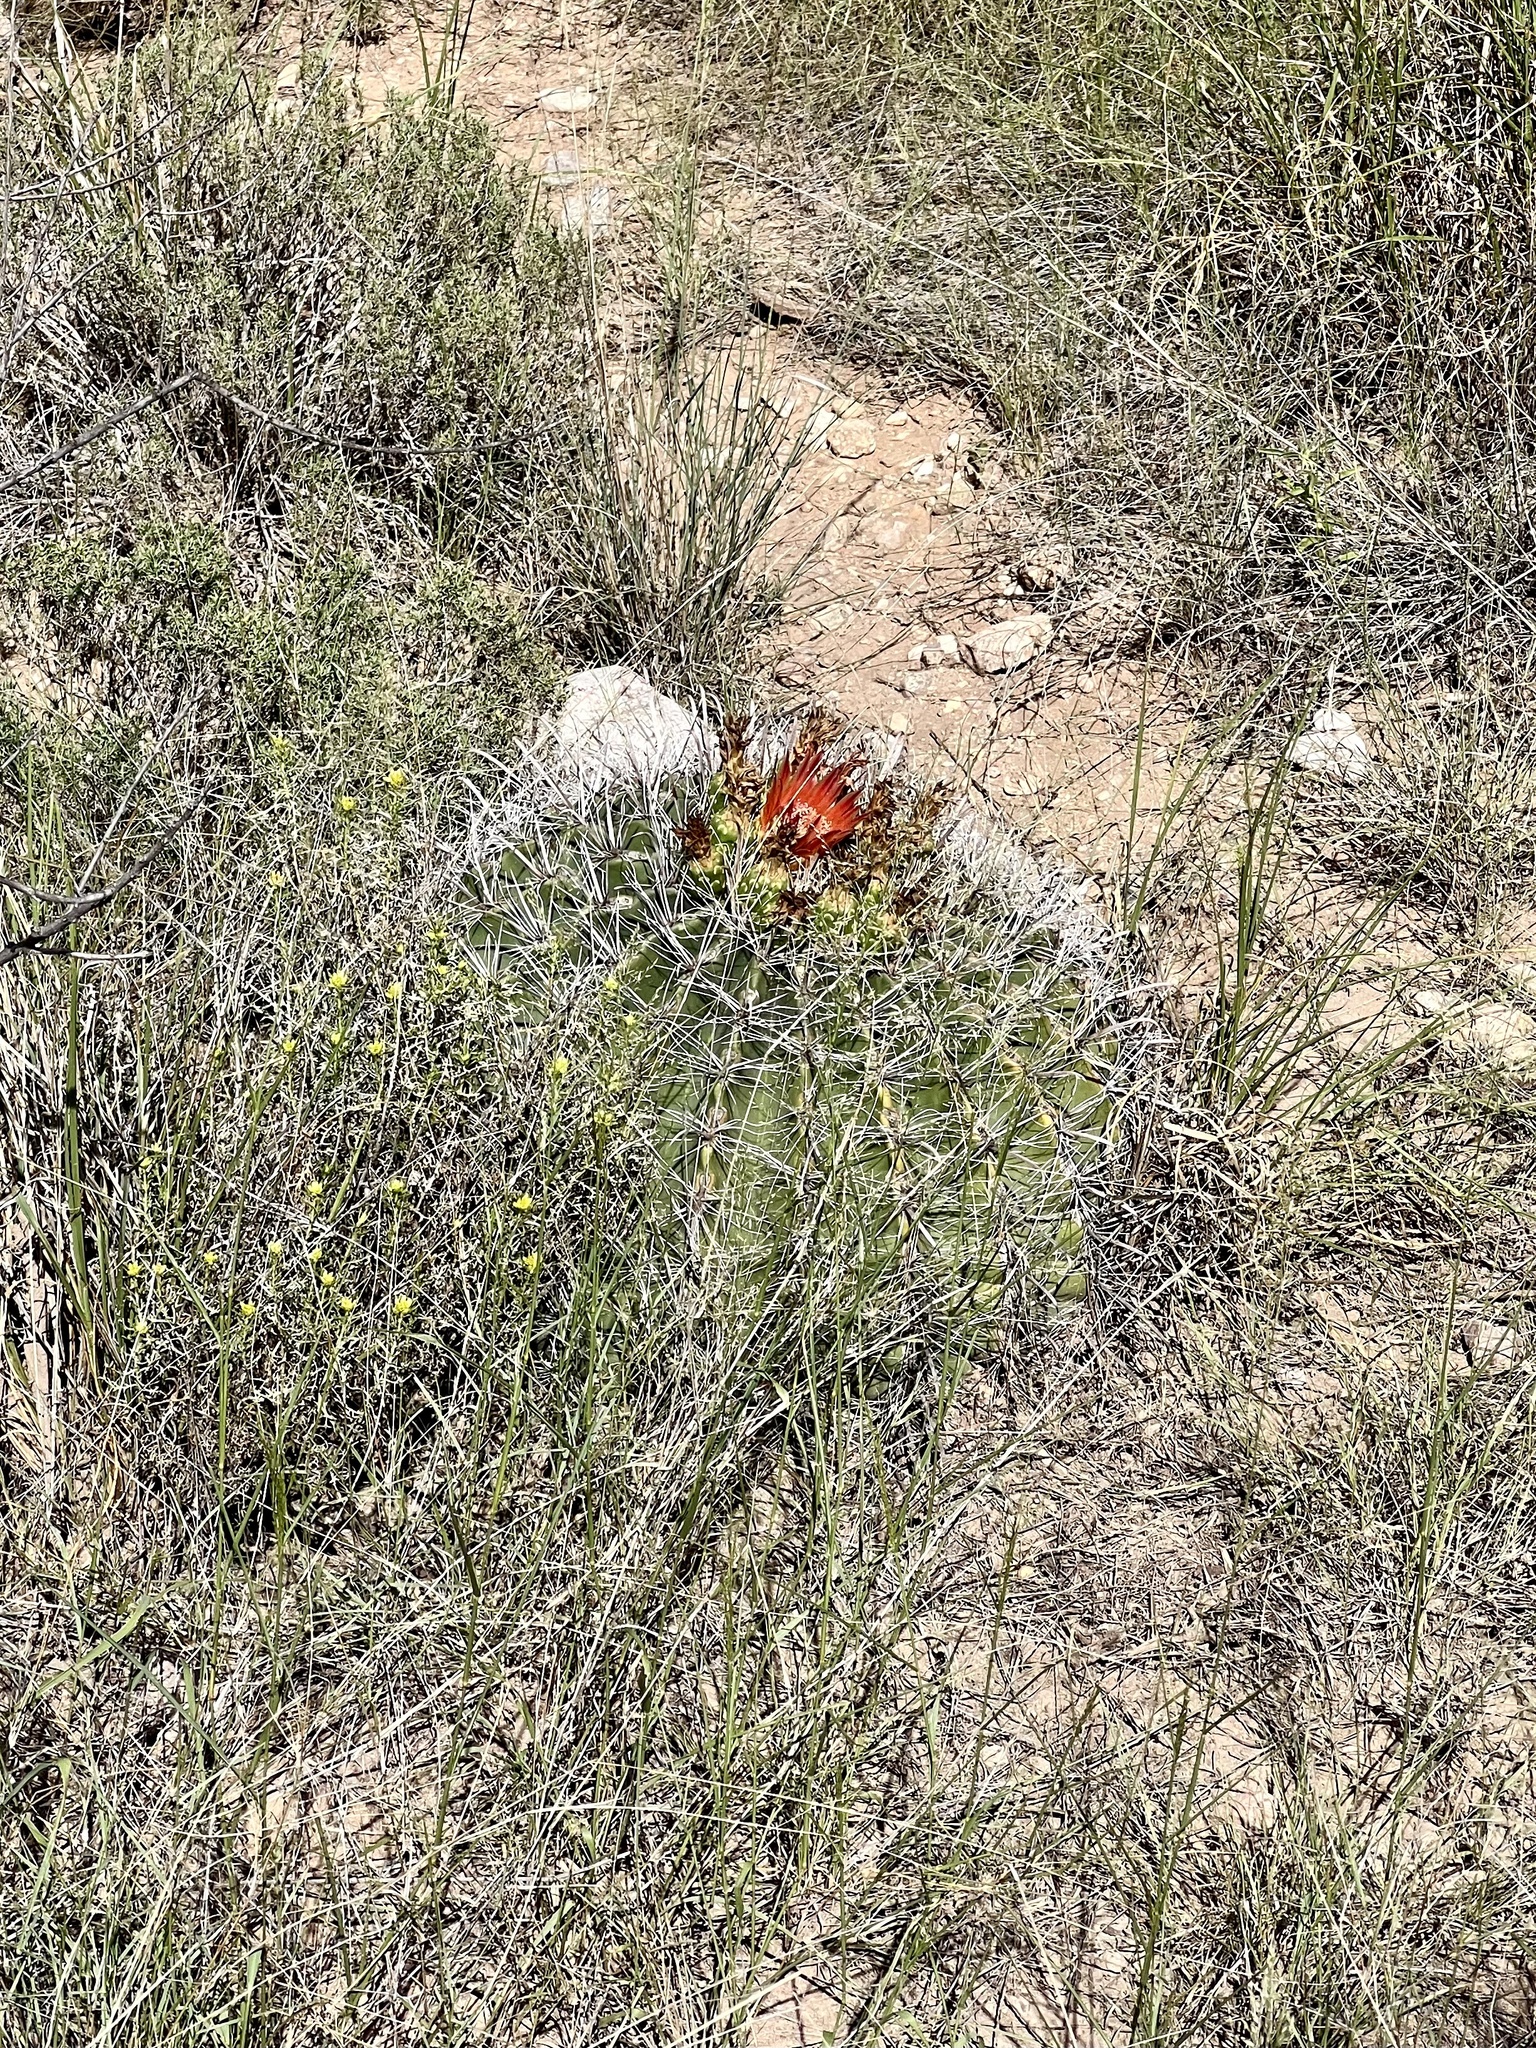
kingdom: Plantae
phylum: Tracheophyta
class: Magnoliopsida
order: Caryophyllales
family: Cactaceae
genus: Ferocactus
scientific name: Ferocactus wislizeni
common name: Candy barrel cactus
